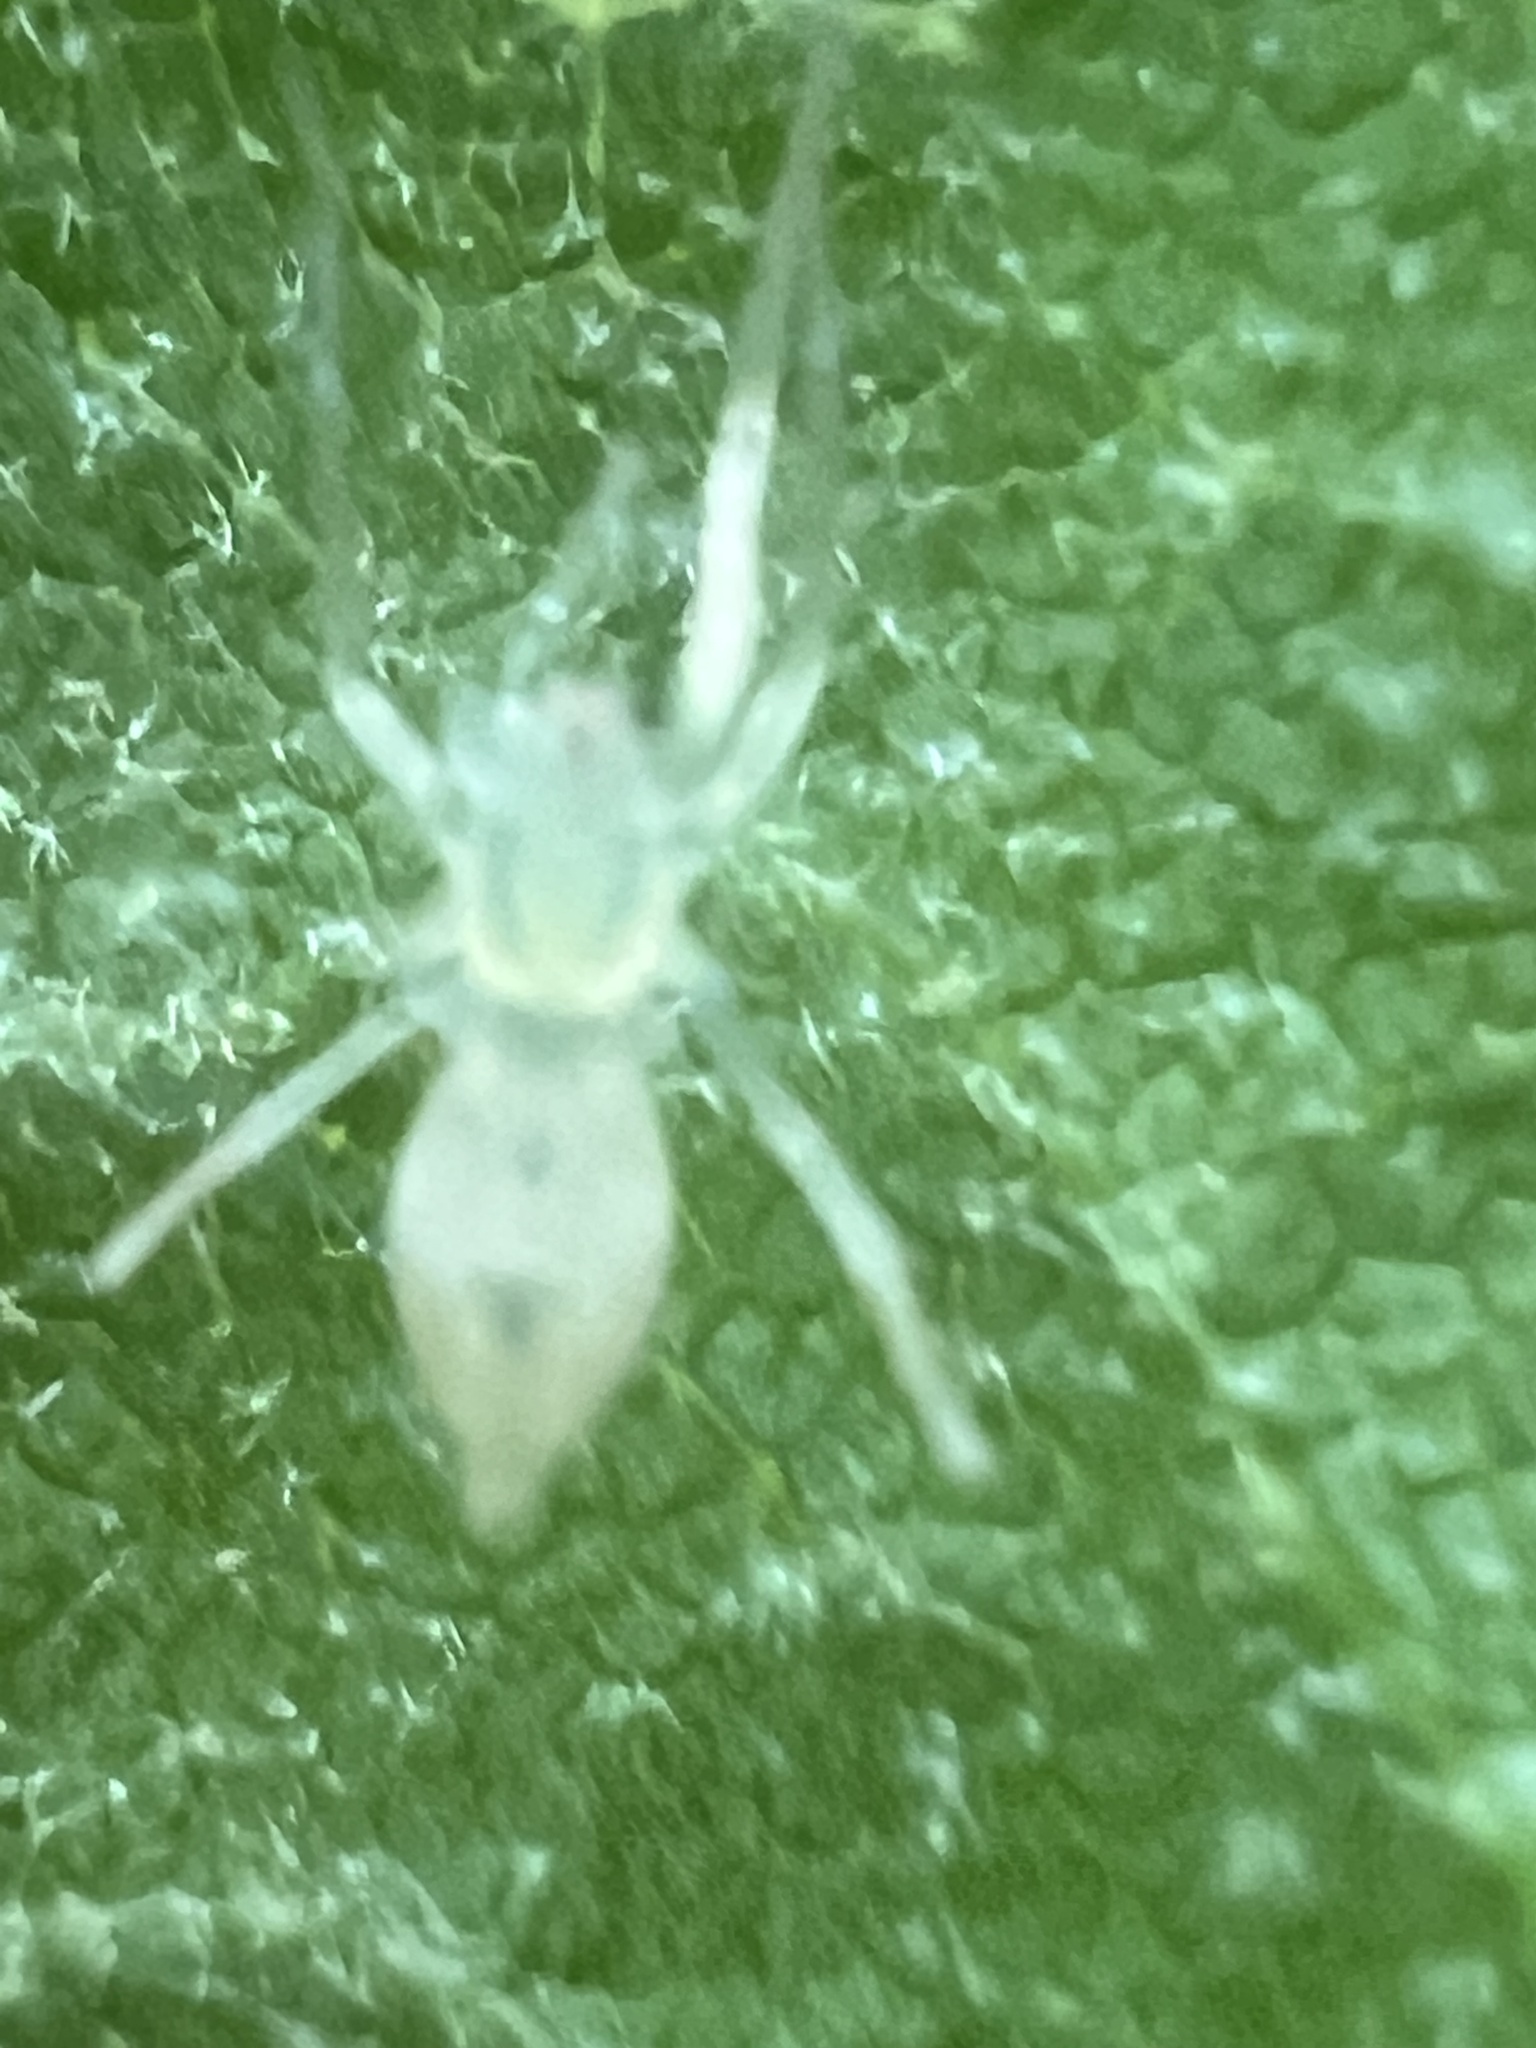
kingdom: Animalia
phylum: Arthropoda
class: Arachnida
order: Araneae
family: Anyphaenidae
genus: Wulfila
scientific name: Wulfila albens
